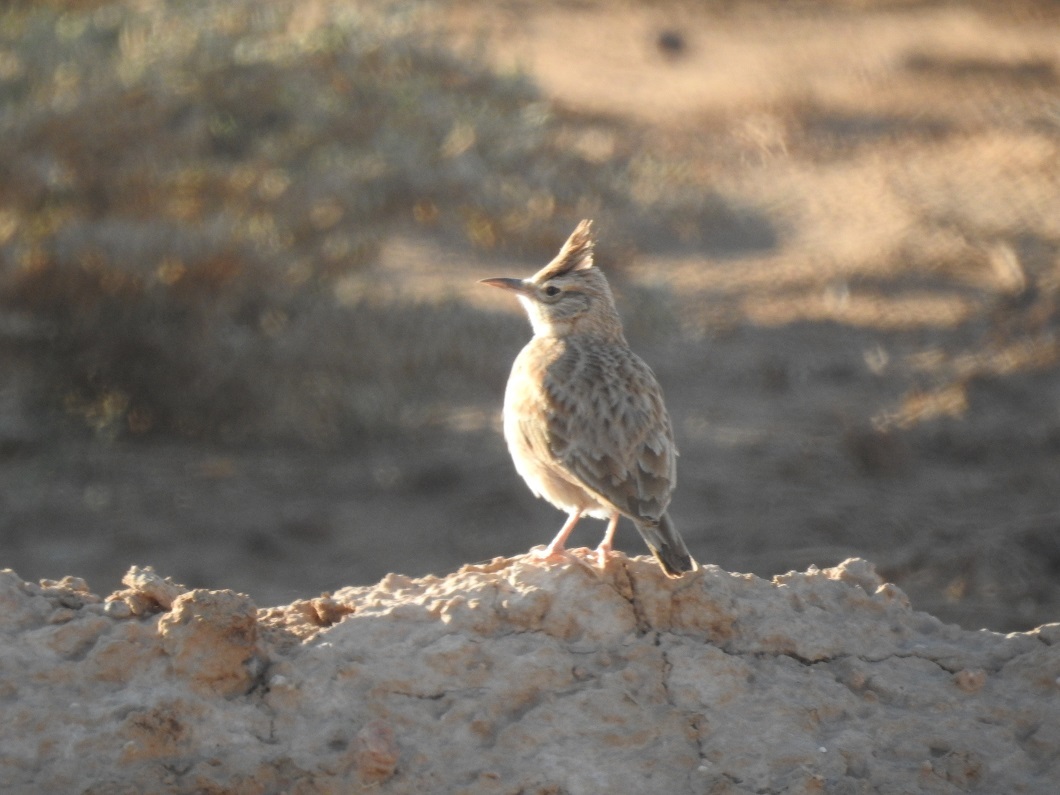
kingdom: Animalia
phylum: Chordata
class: Aves
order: Passeriformes
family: Alaudidae
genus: Galerida
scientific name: Galerida cristata
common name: Crested lark
